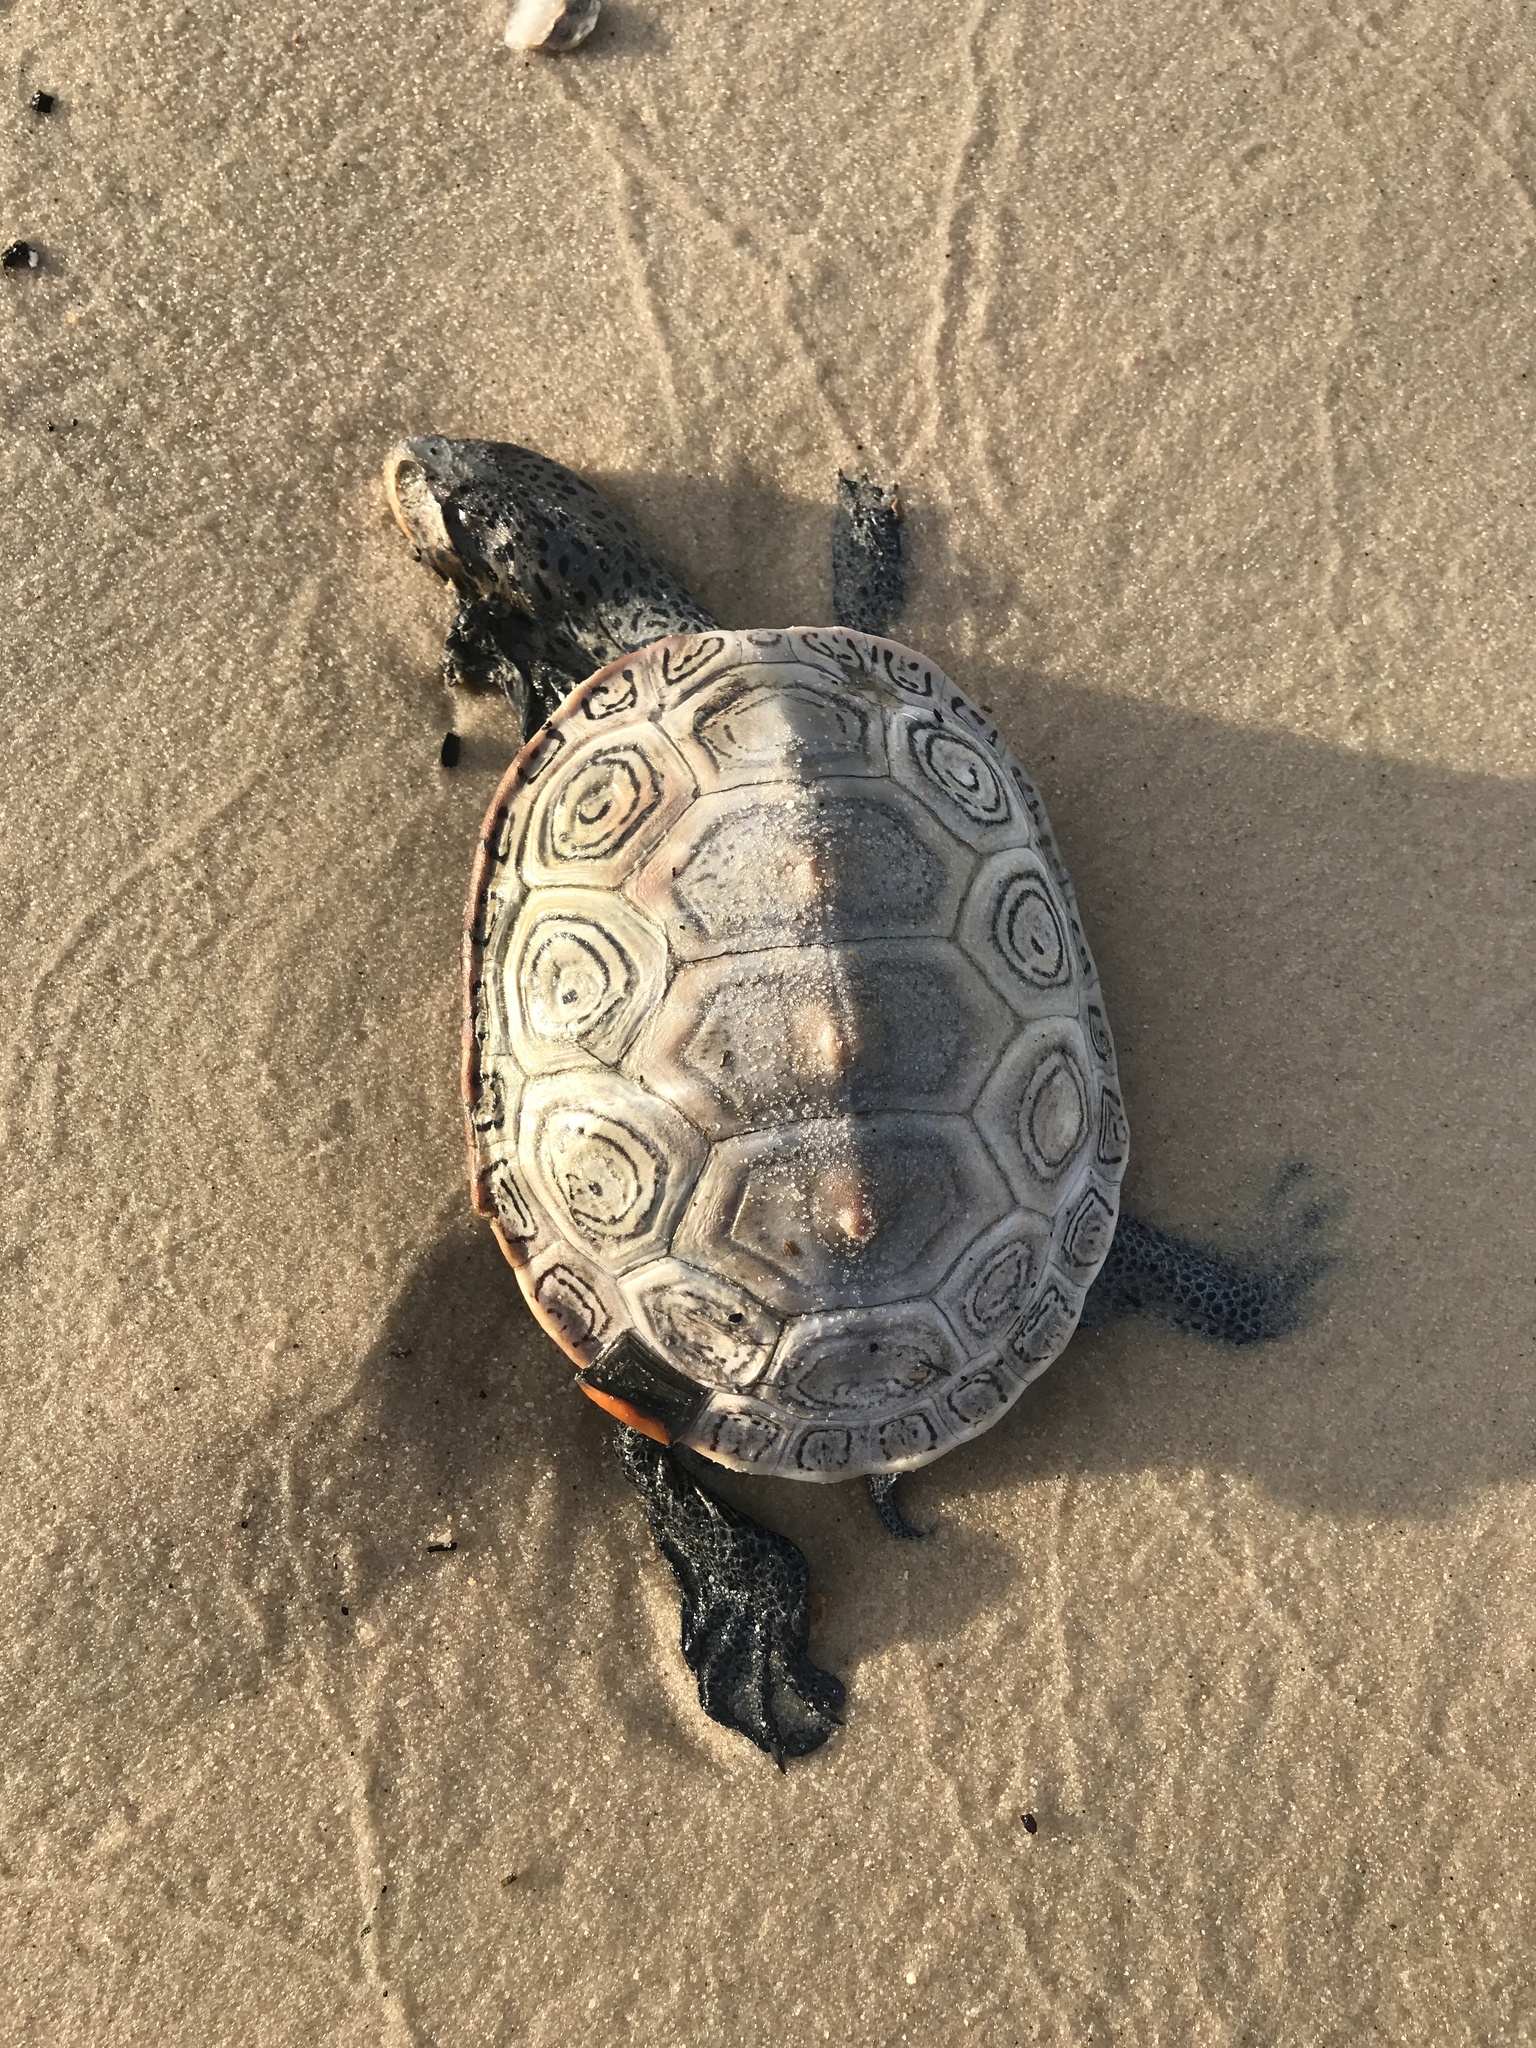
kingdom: Animalia
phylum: Chordata
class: Testudines
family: Emydidae
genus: Malaclemys
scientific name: Malaclemys terrapin
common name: Diamondback terrapin
